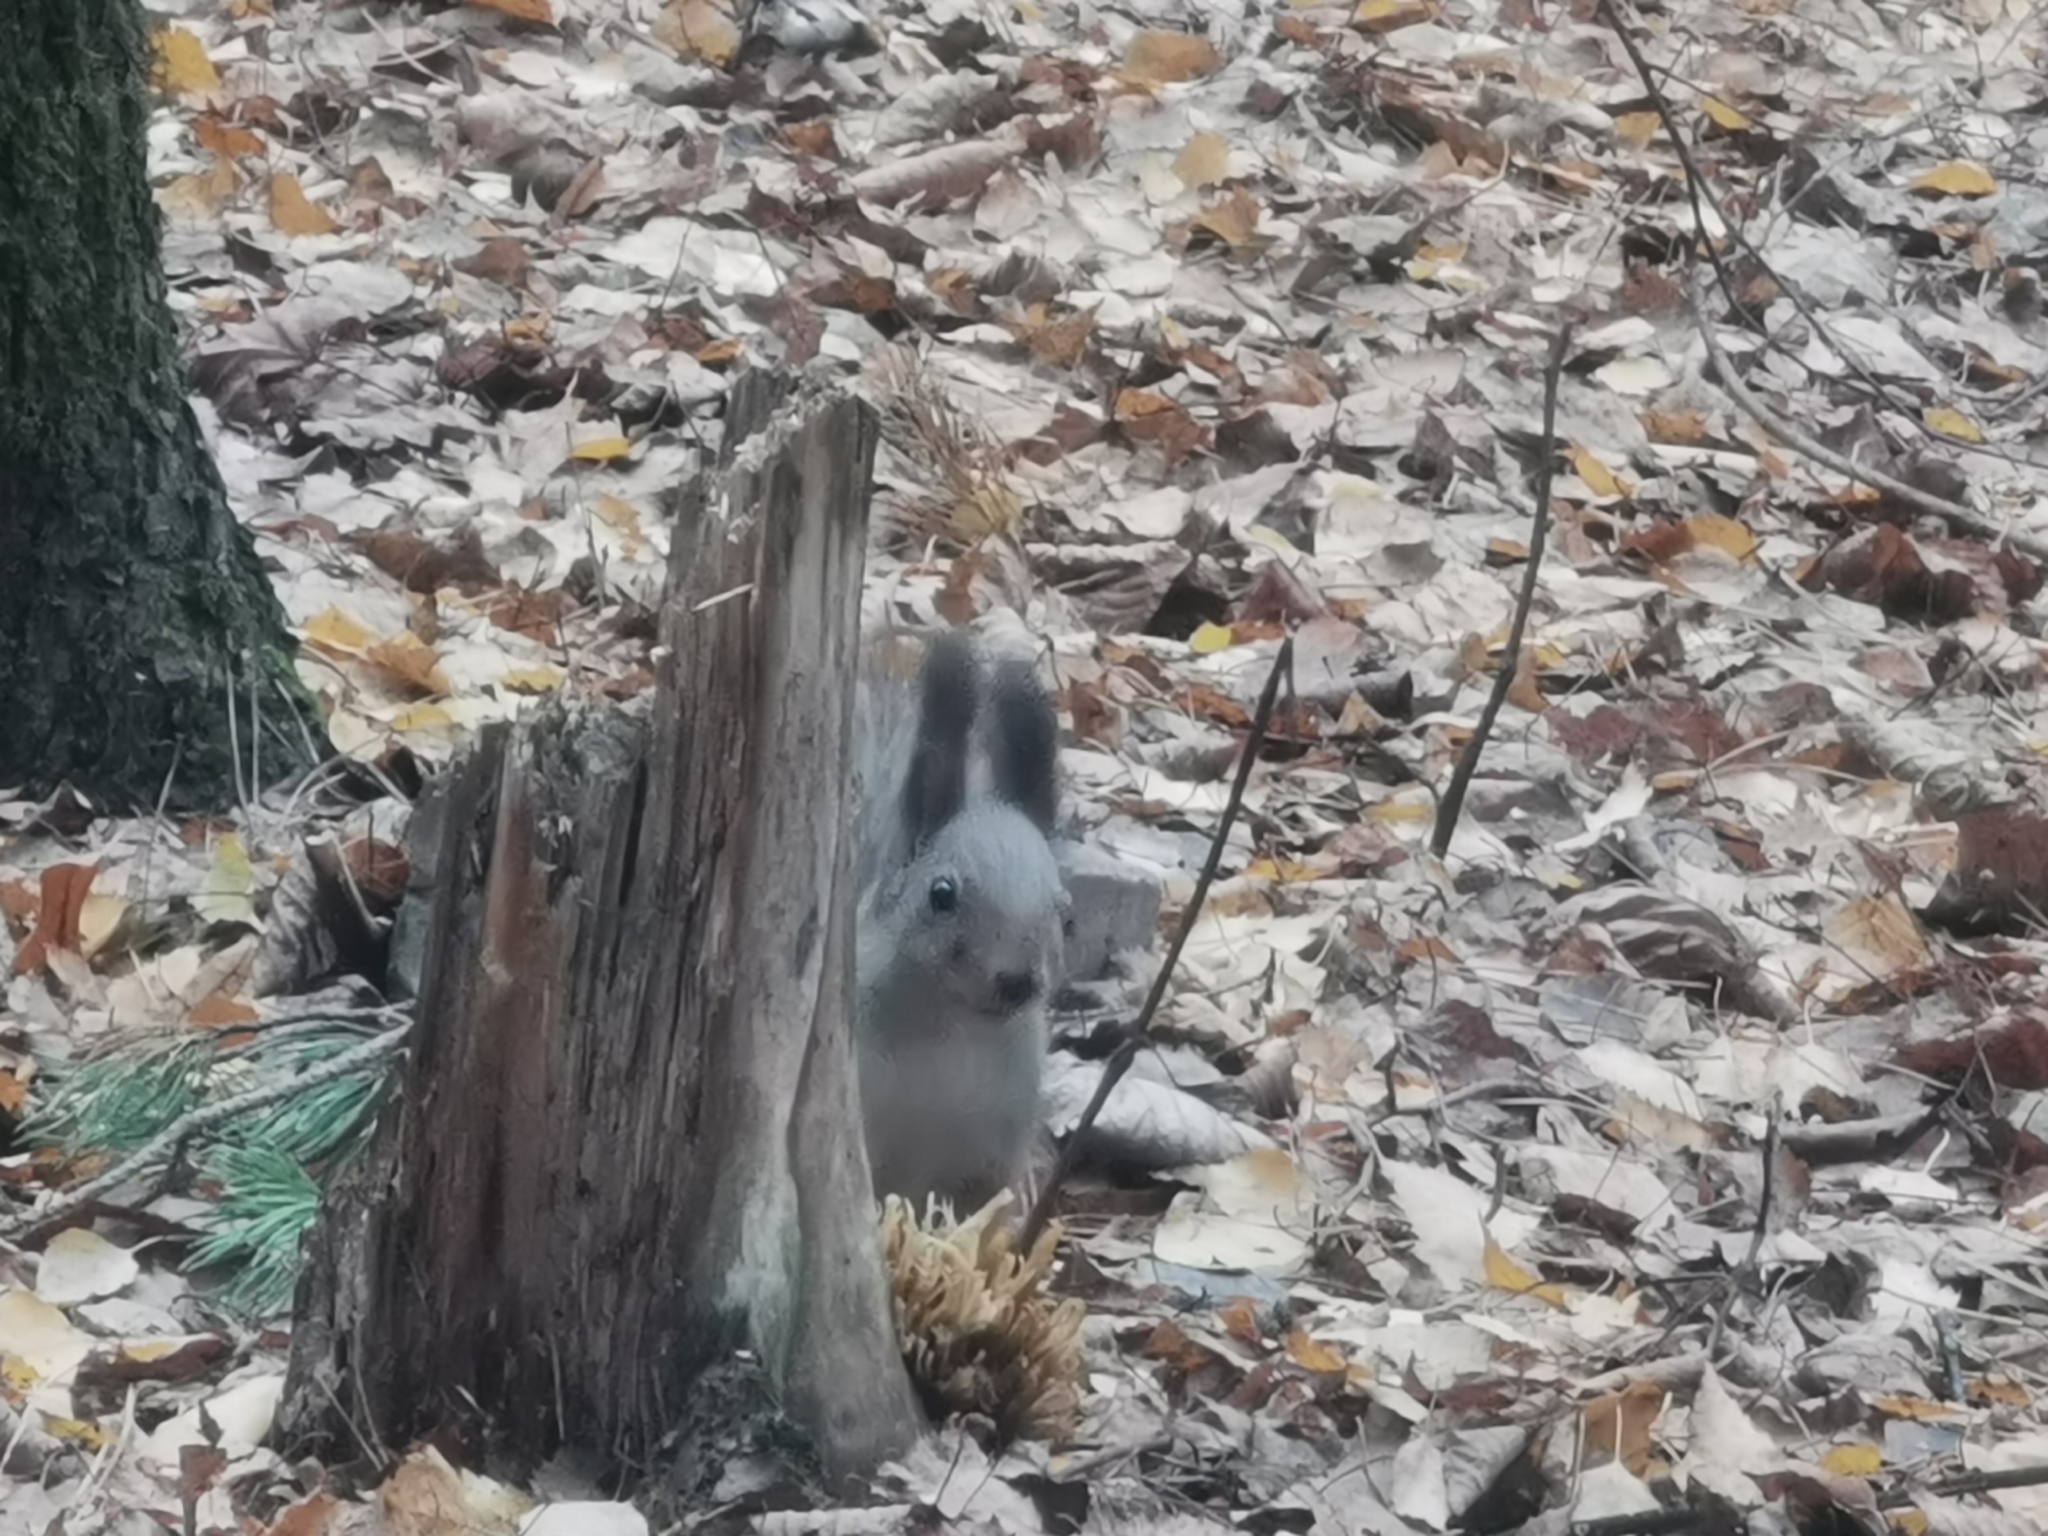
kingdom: Animalia
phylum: Chordata
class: Mammalia
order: Rodentia
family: Sciuridae
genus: Sciurus
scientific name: Sciurus vulgaris
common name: Eurasian red squirrel
